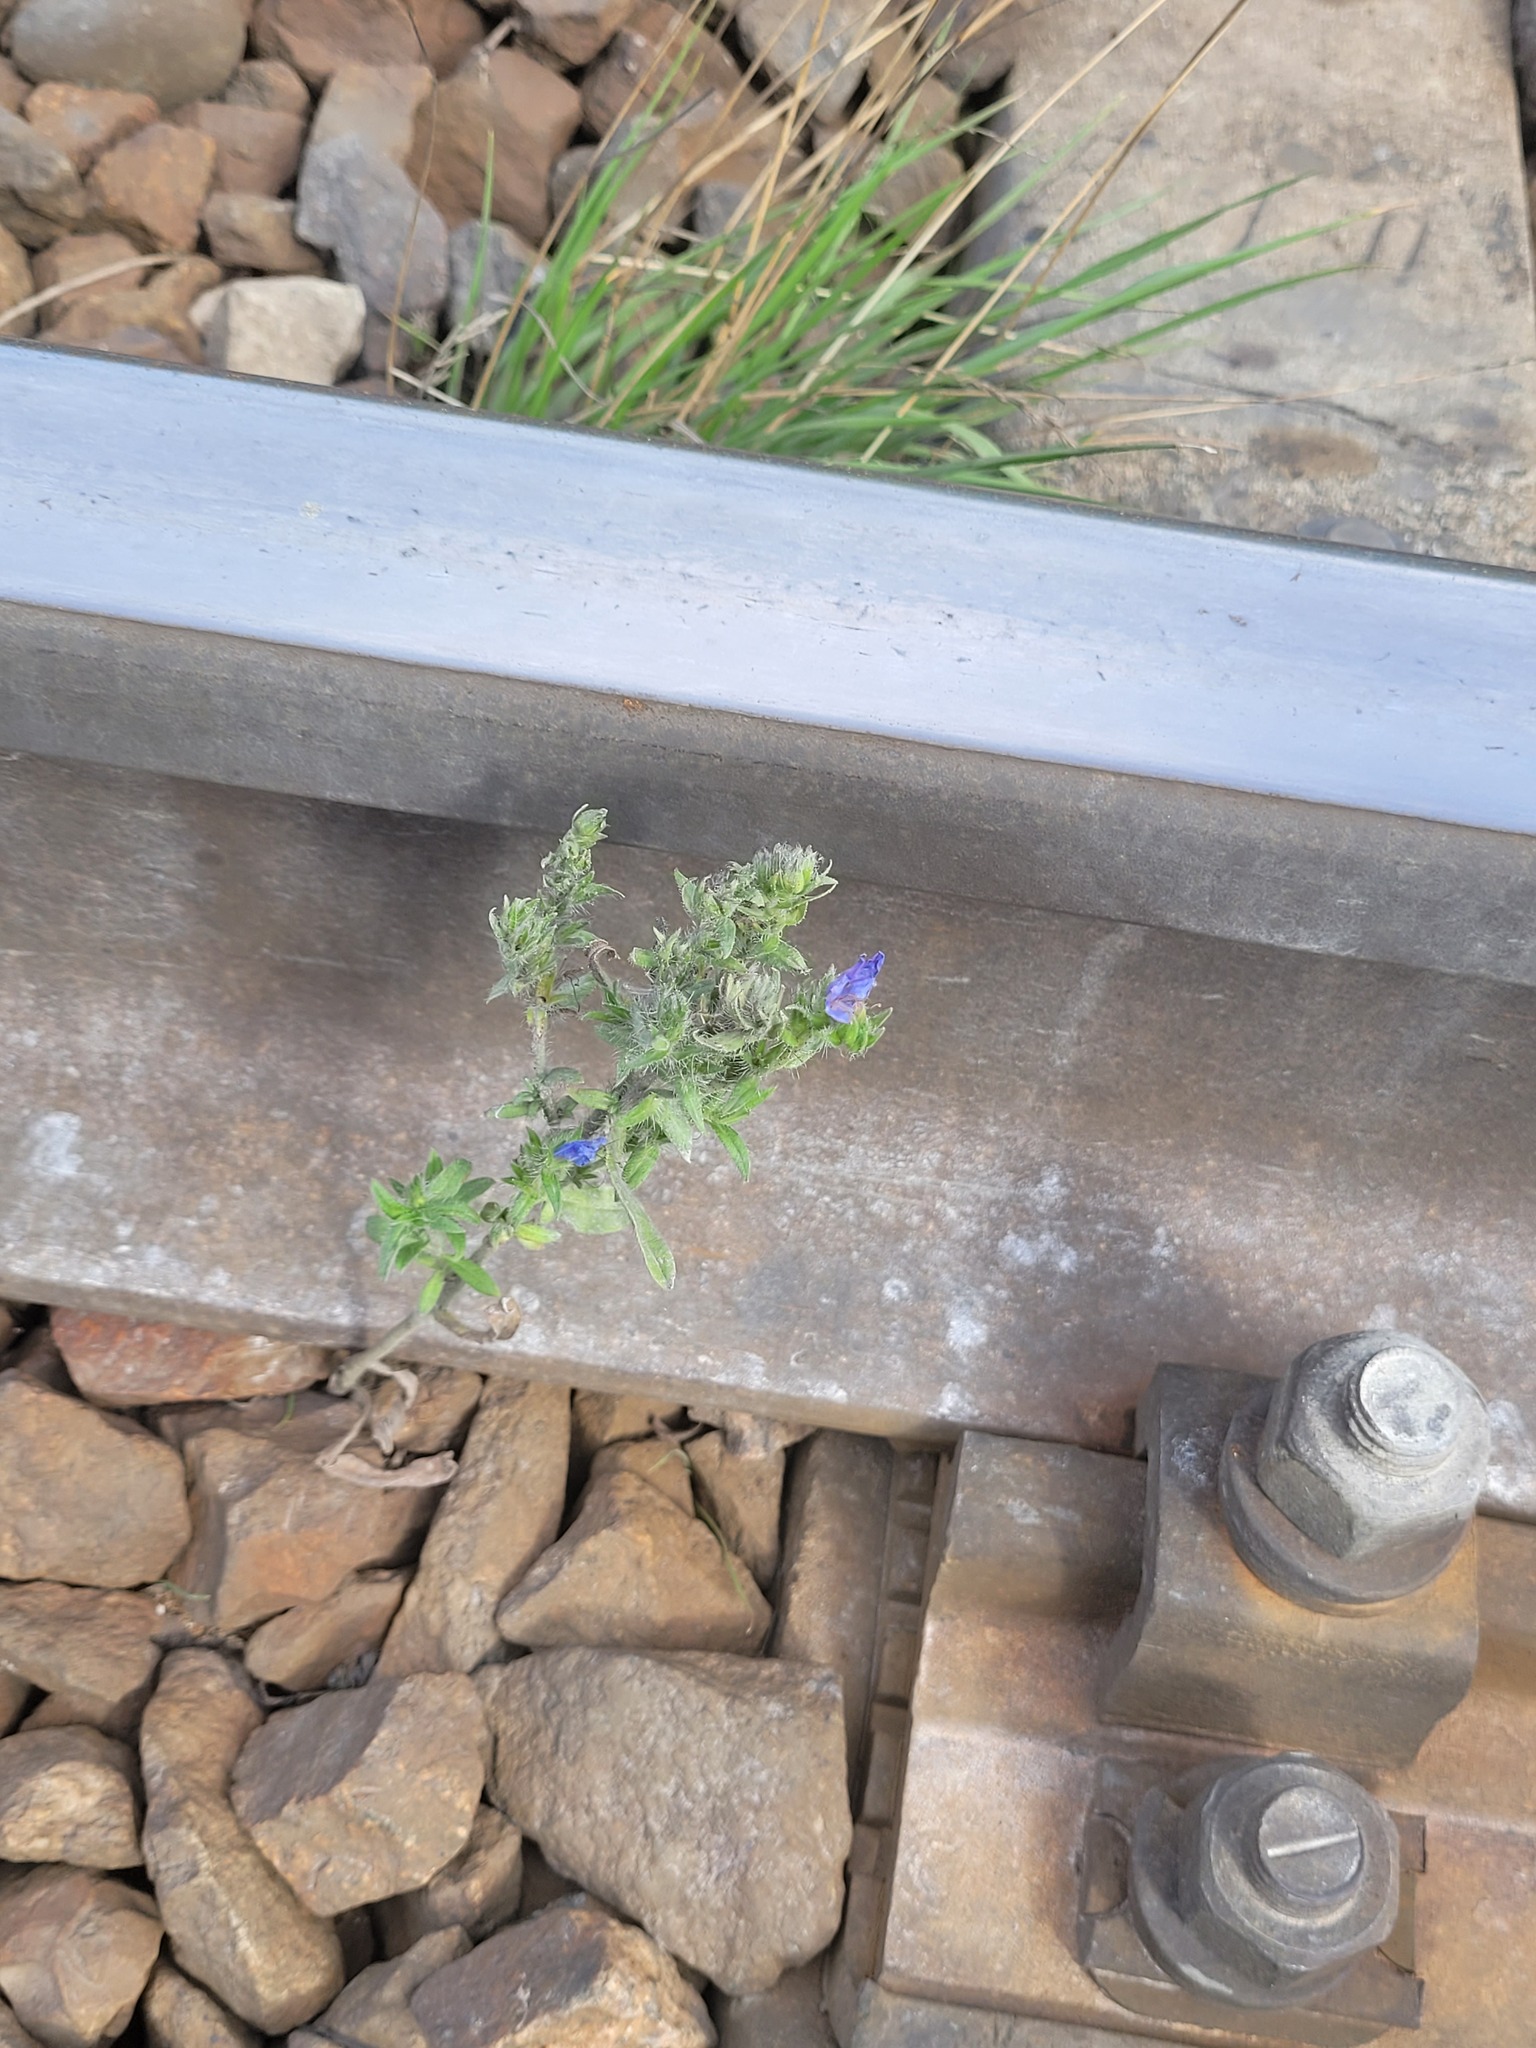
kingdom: Plantae
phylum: Tracheophyta
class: Magnoliopsida
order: Boraginales
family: Boraginaceae
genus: Echium
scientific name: Echium vulgare
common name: Common viper's bugloss
